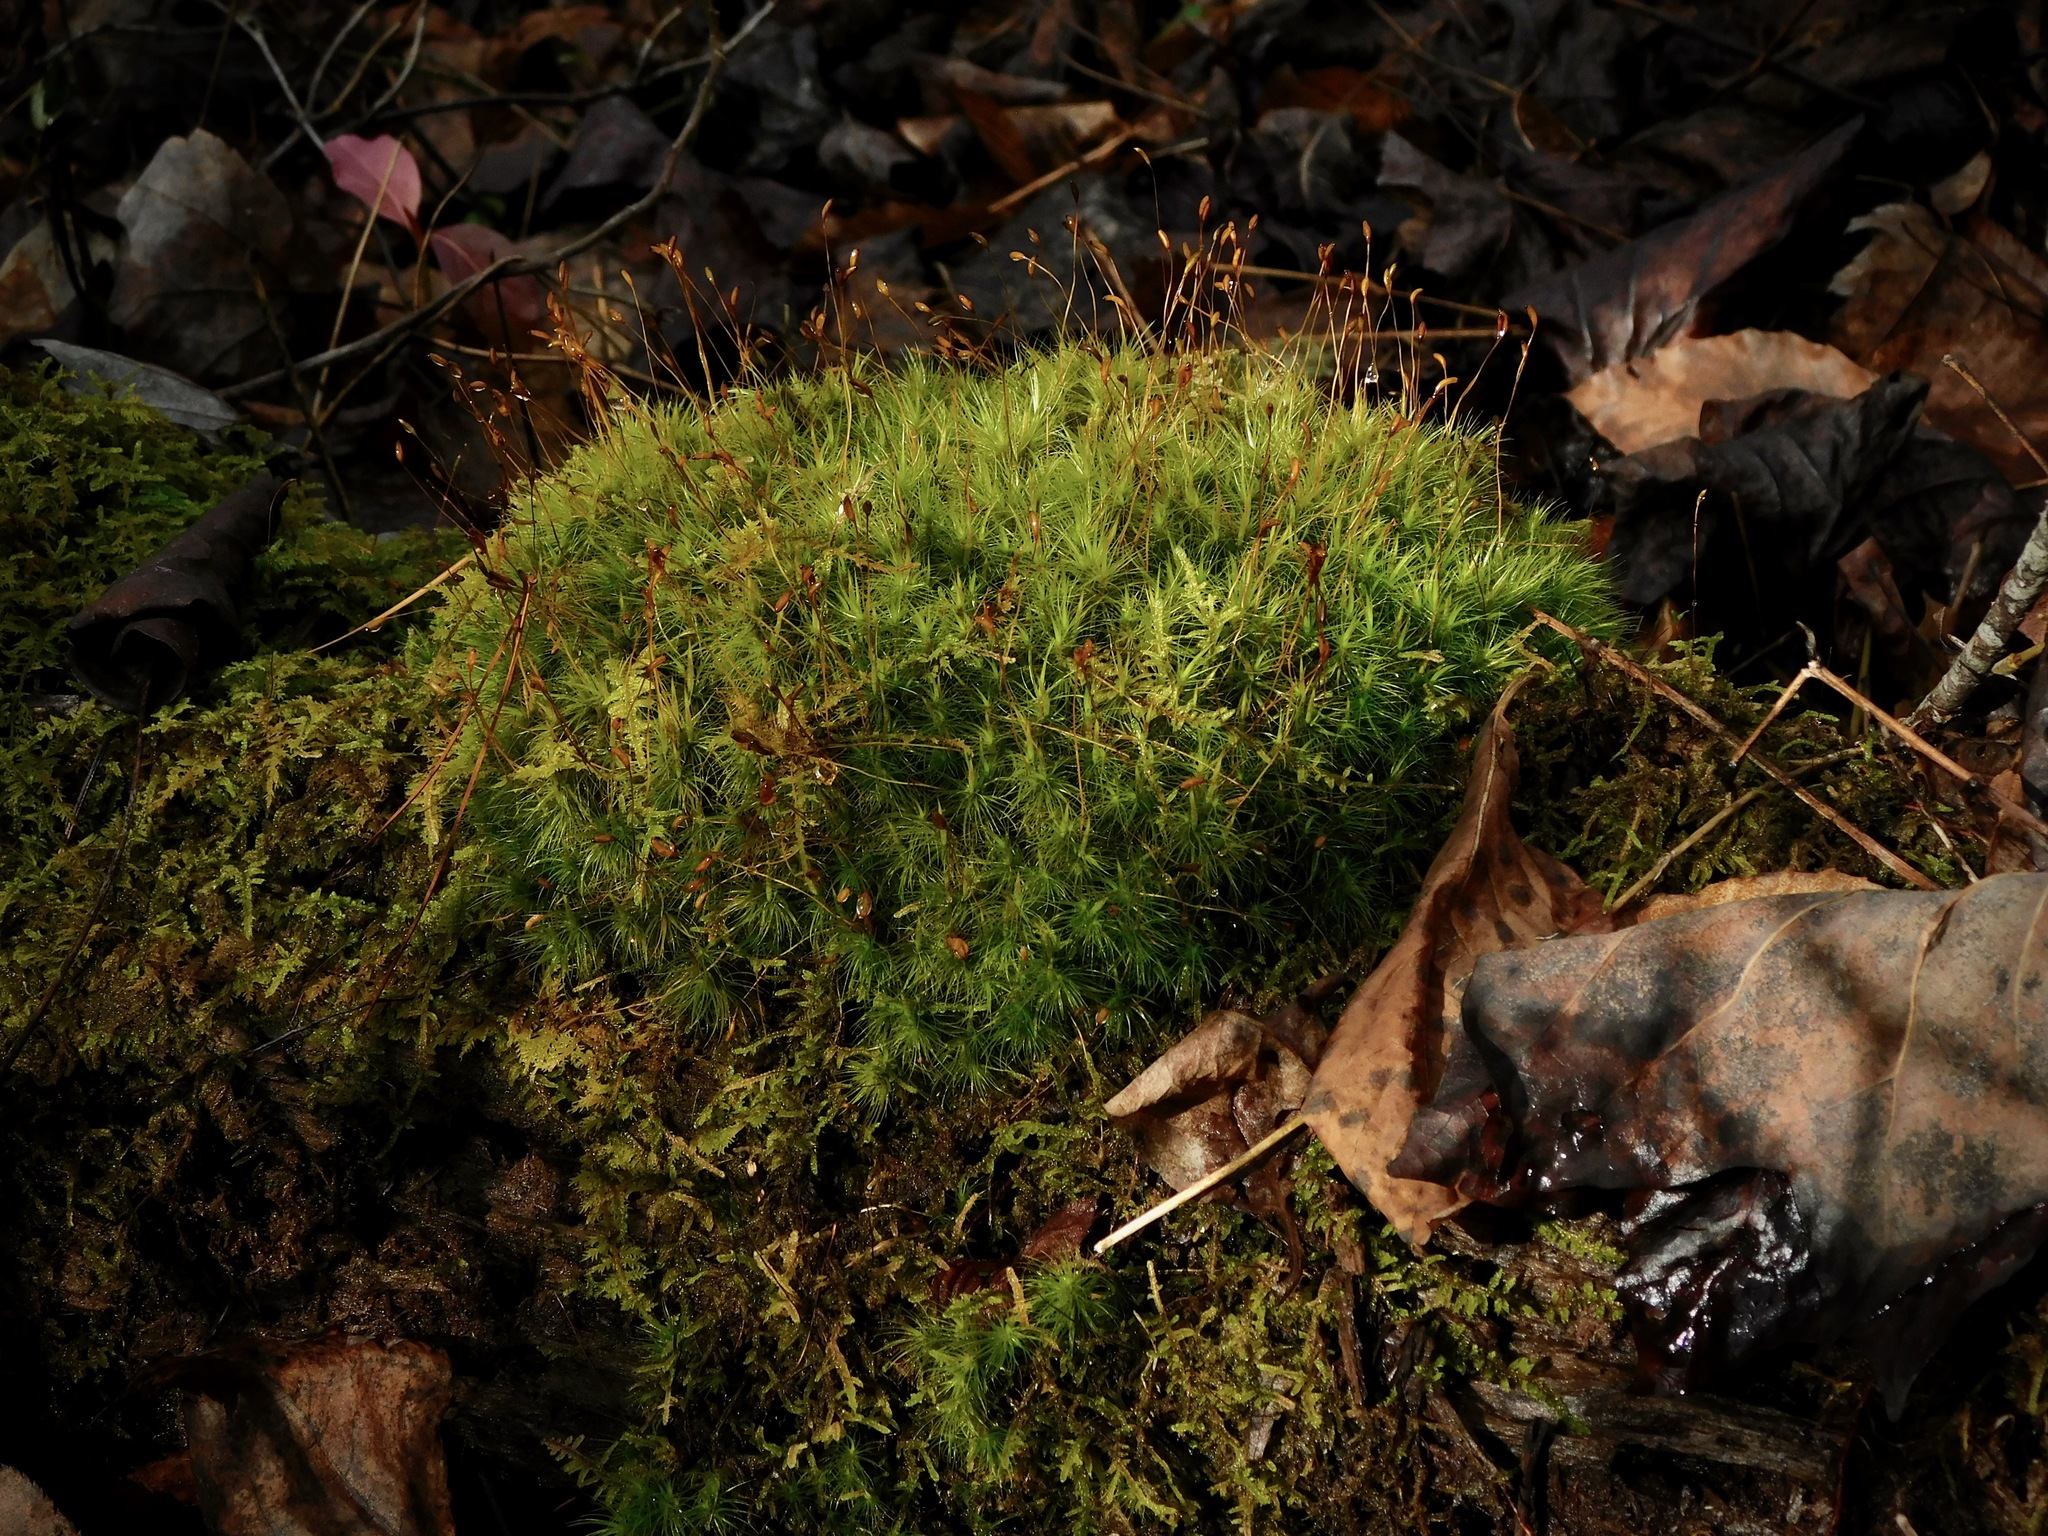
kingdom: Plantae
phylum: Bryophyta
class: Bryopsida
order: Dicranales
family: Dicranaceae
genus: Dicranum
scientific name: Dicranum scoparium
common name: Broom fork-moss
